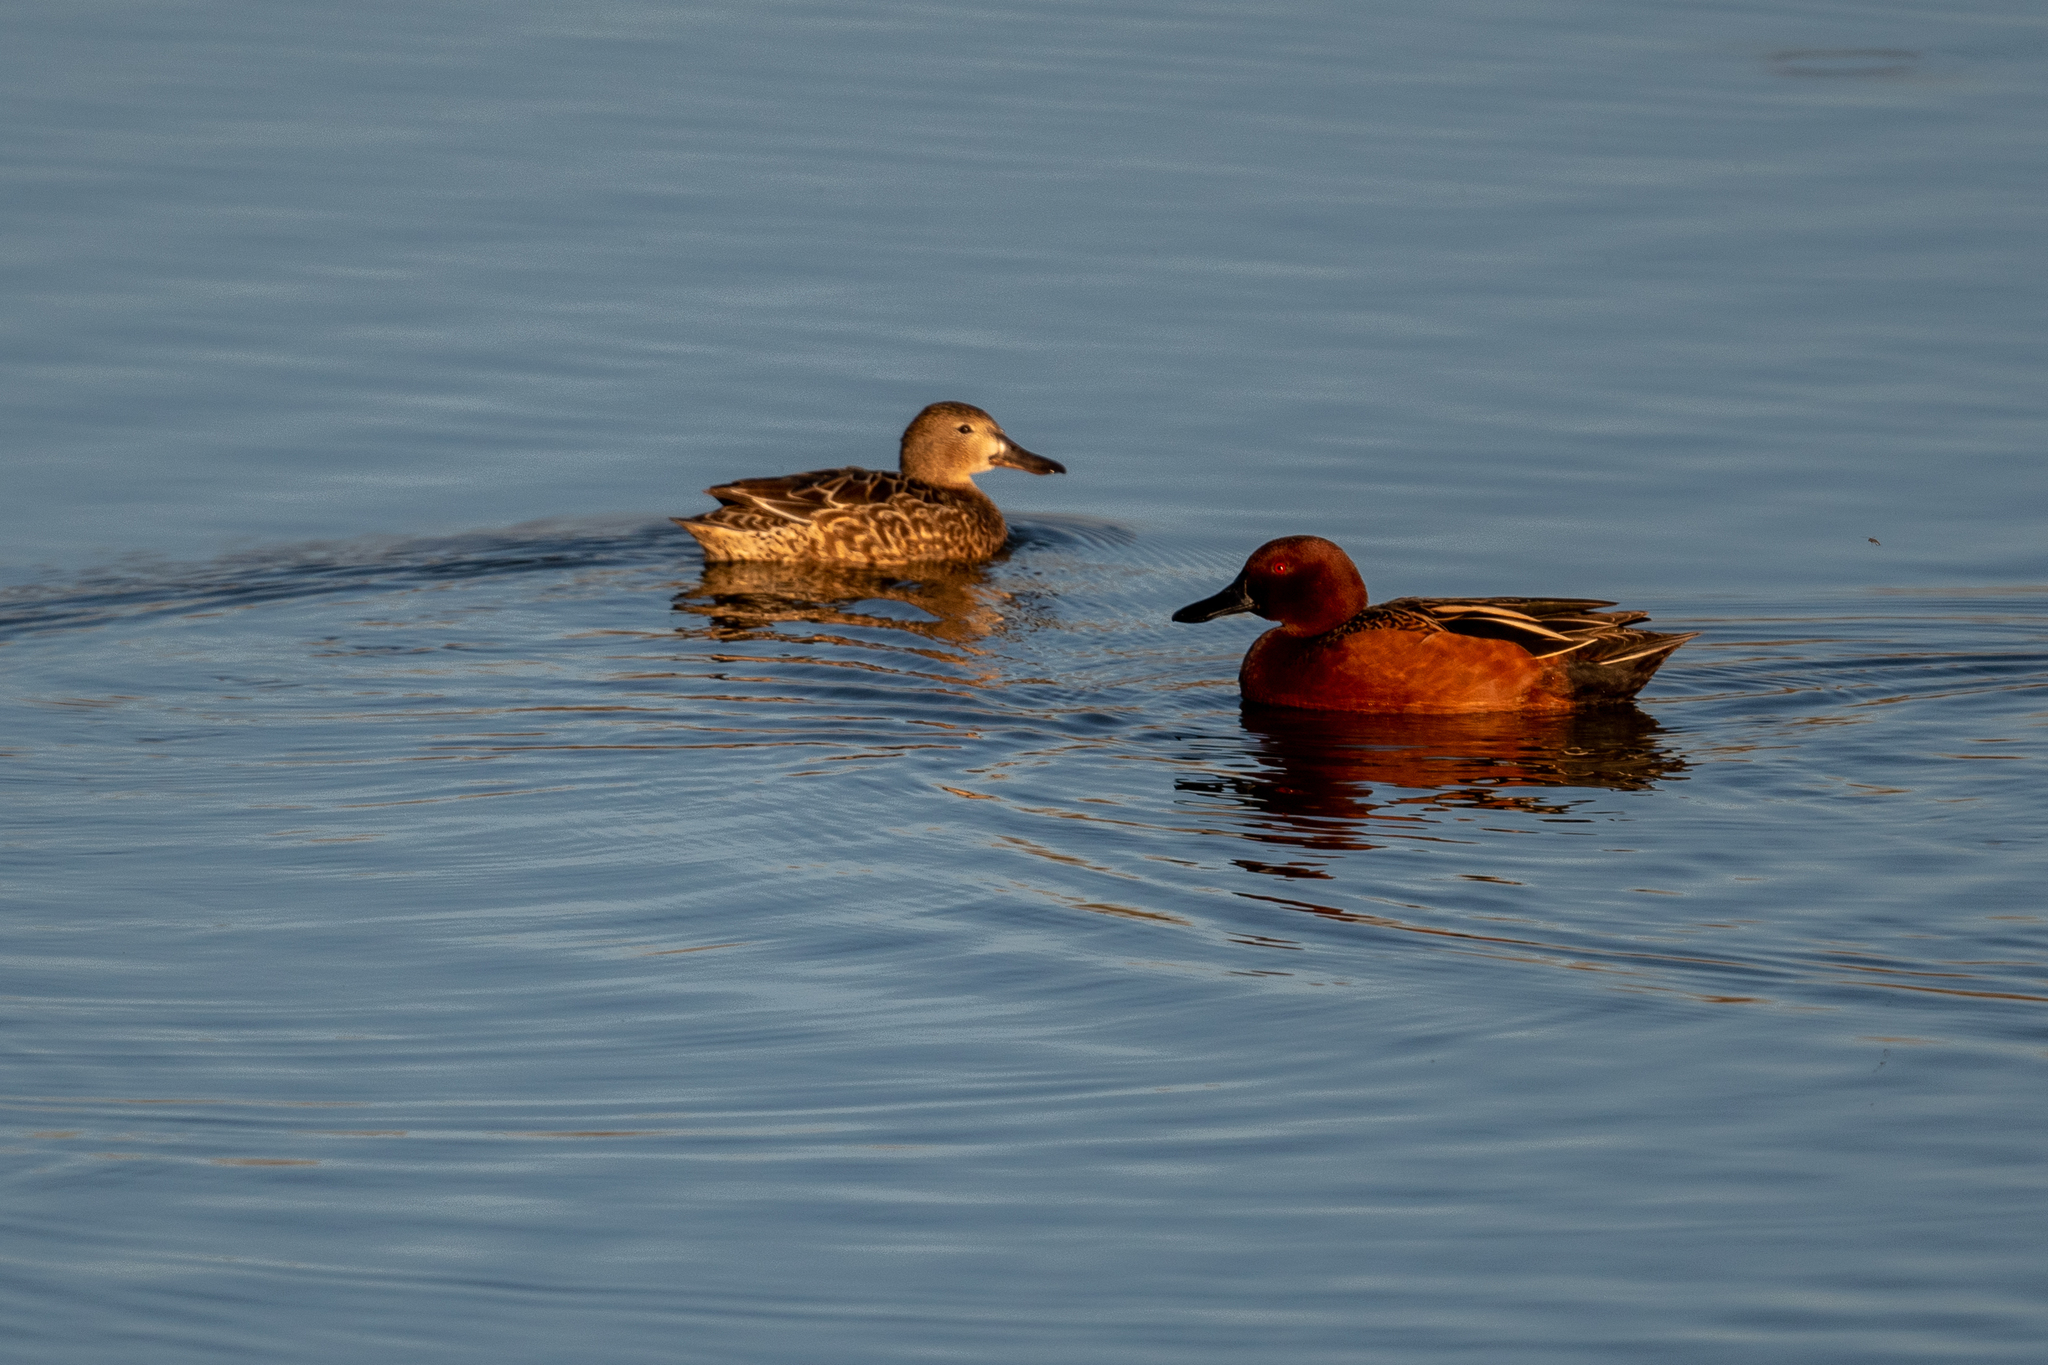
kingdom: Animalia
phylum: Chordata
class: Aves
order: Anseriformes
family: Anatidae
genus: Spatula
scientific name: Spatula cyanoptera
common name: Cinnamon teal
